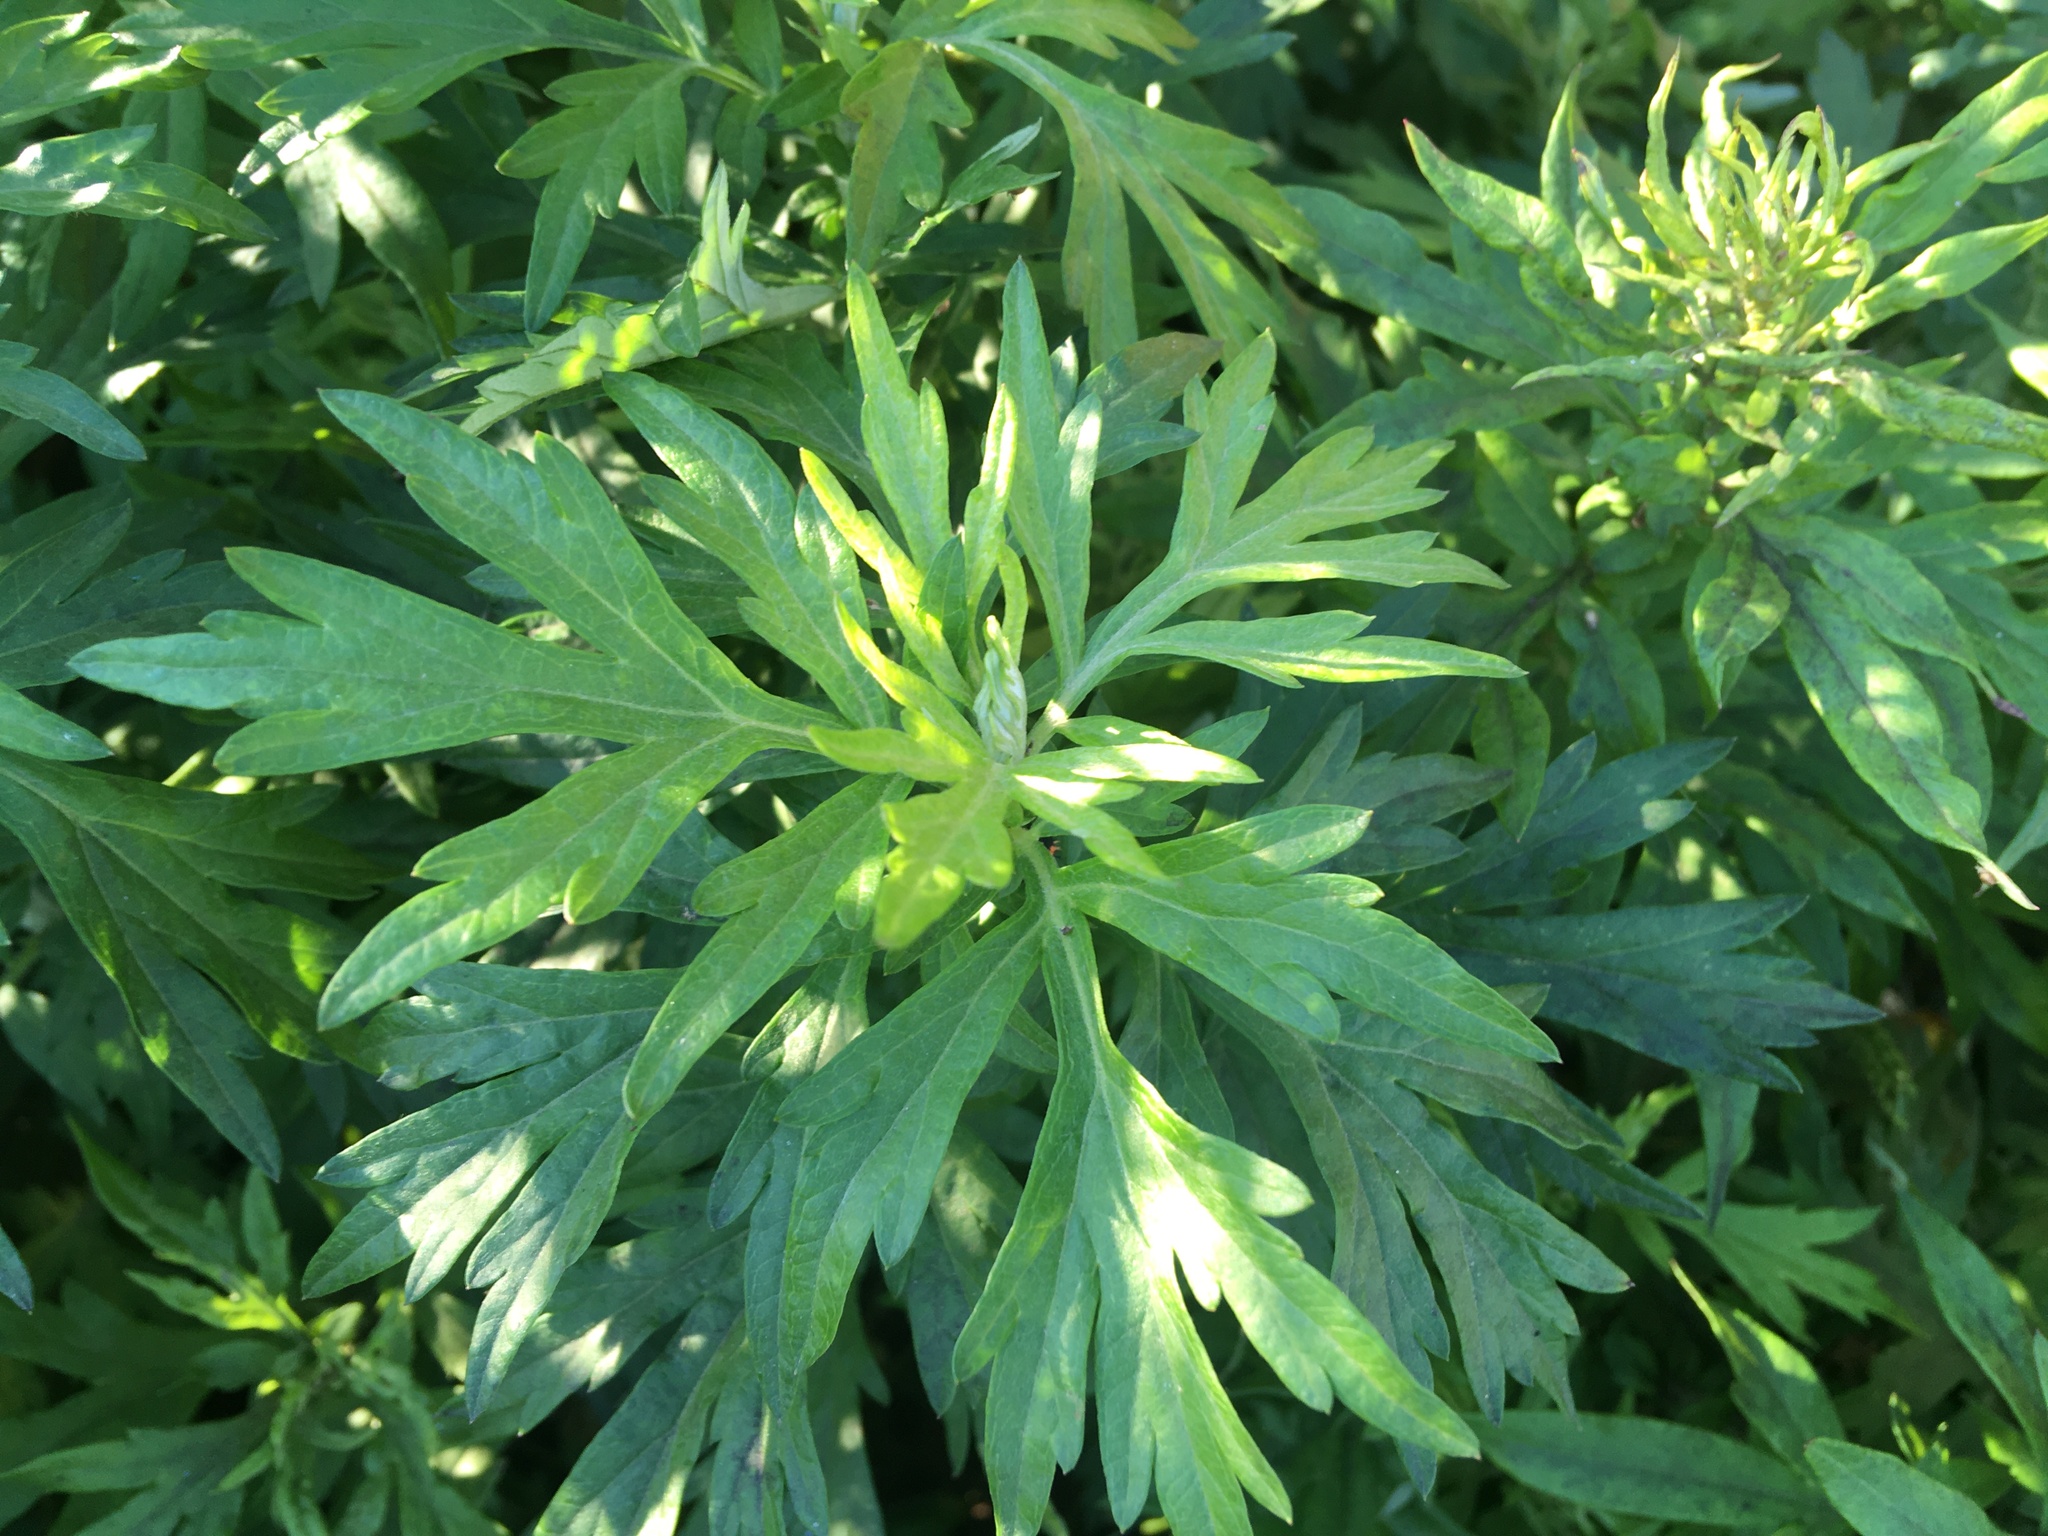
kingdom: Plantae
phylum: Tracheophyta
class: Magnoliopsida
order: Asterales
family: Asteraceae
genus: Artemisia
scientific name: Artemisia vulgaris
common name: Mugwort
